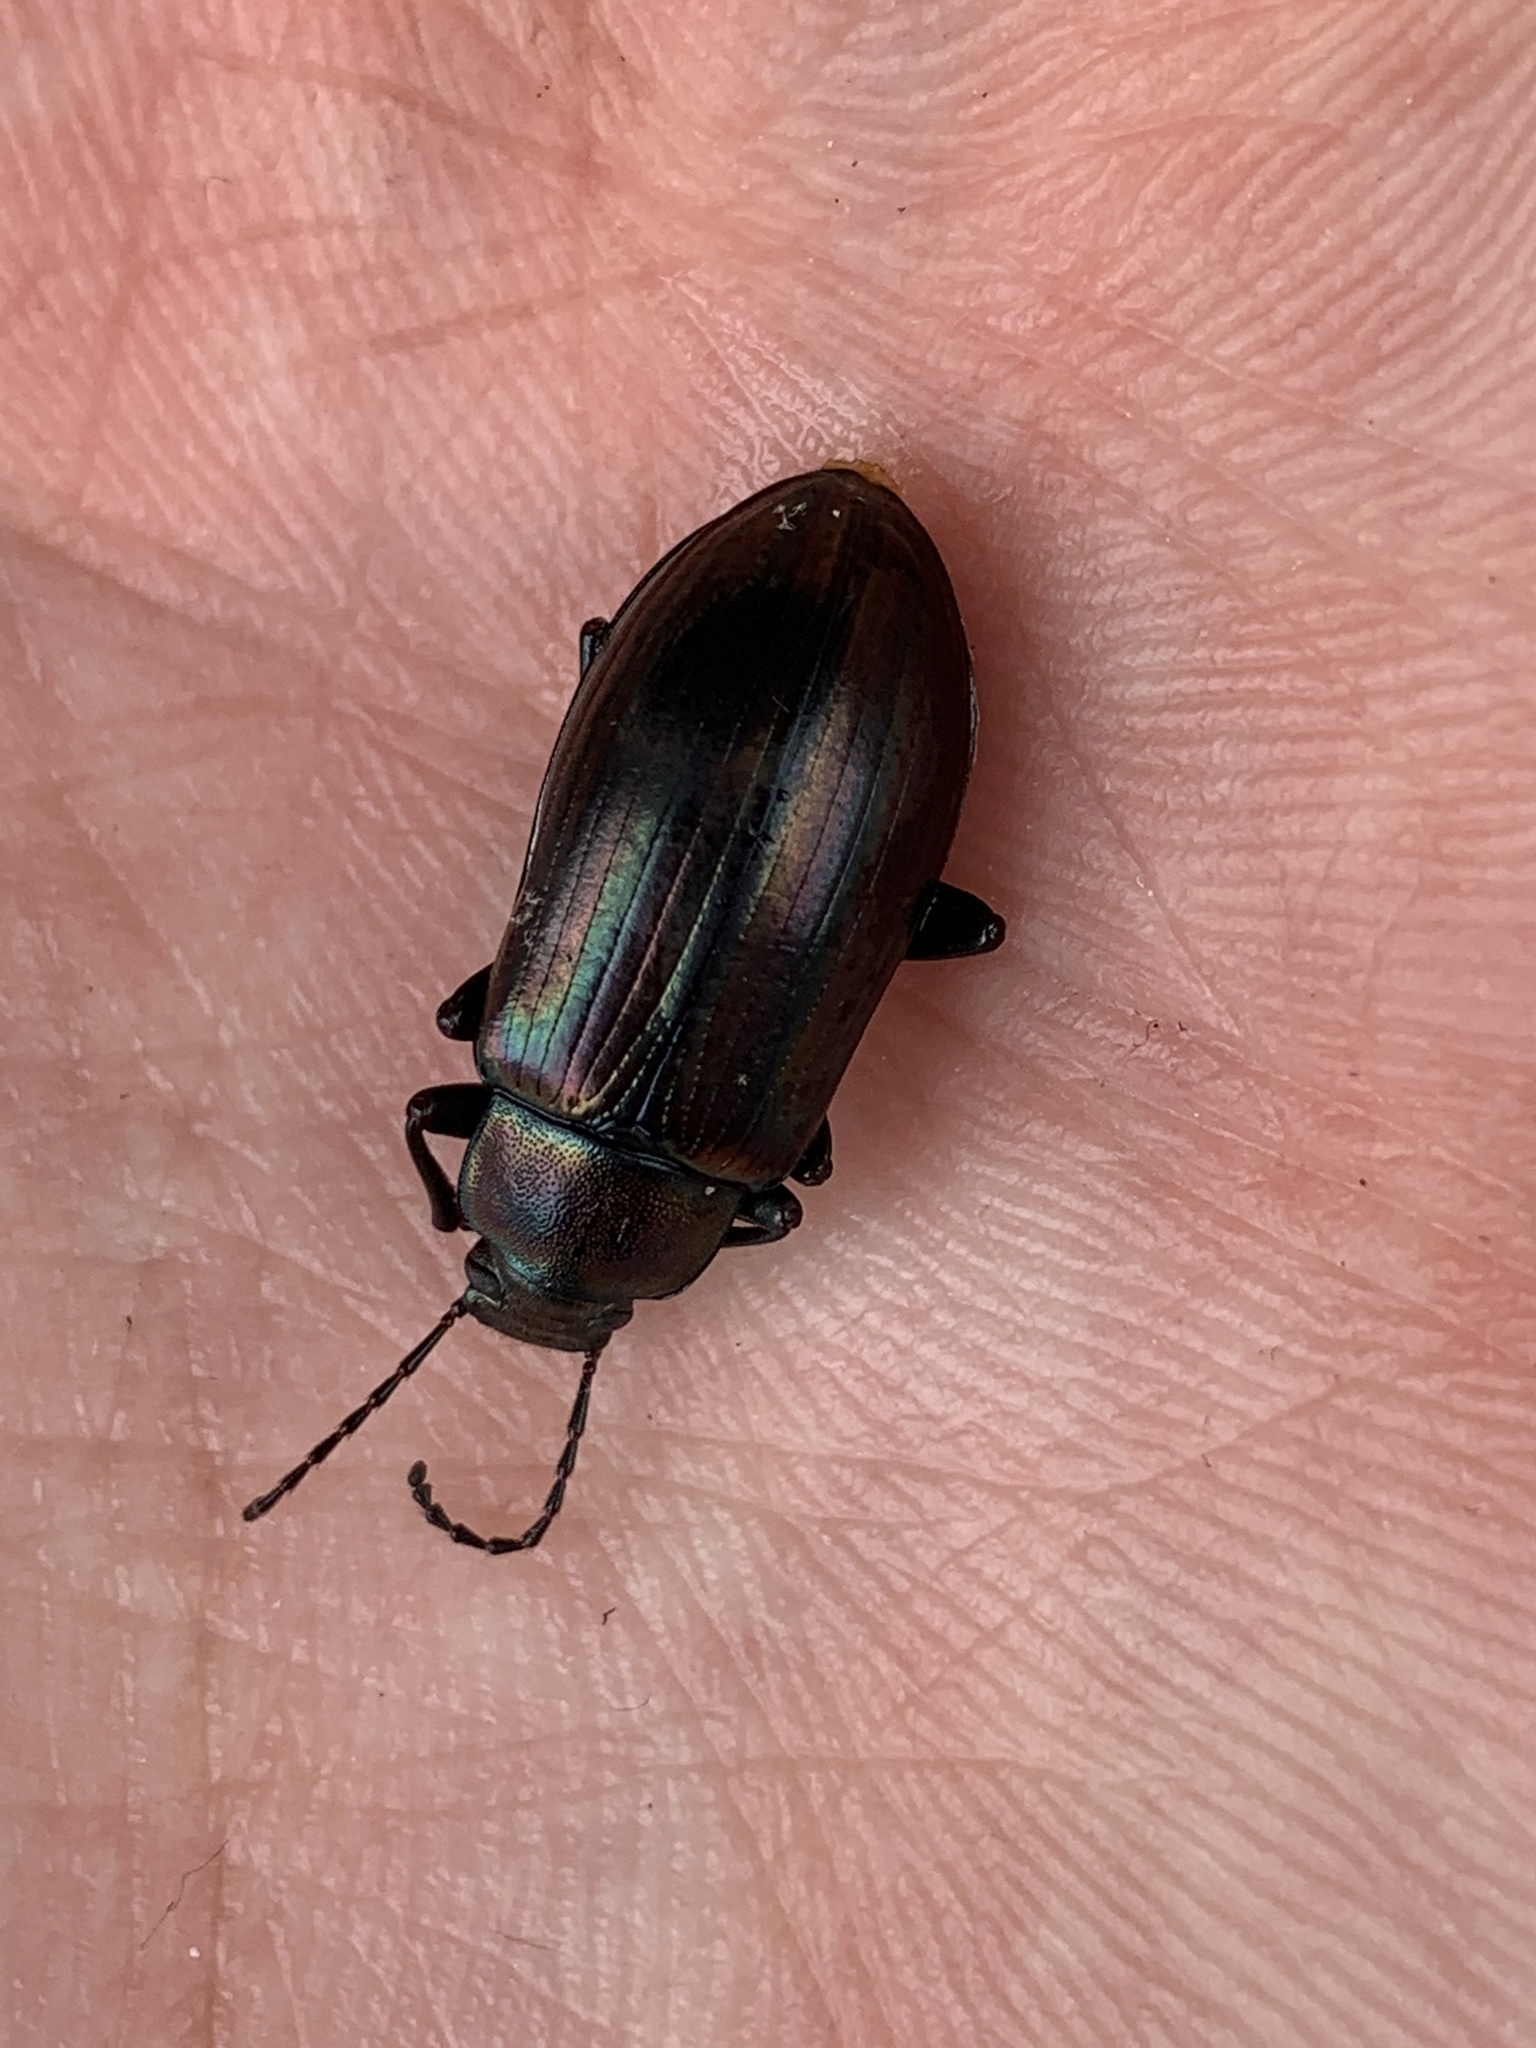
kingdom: Animalia
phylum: Arthropoda
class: Insecta
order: Coleoptera
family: Tenebrionidae
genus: Tarpela
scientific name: Tarpela micans
